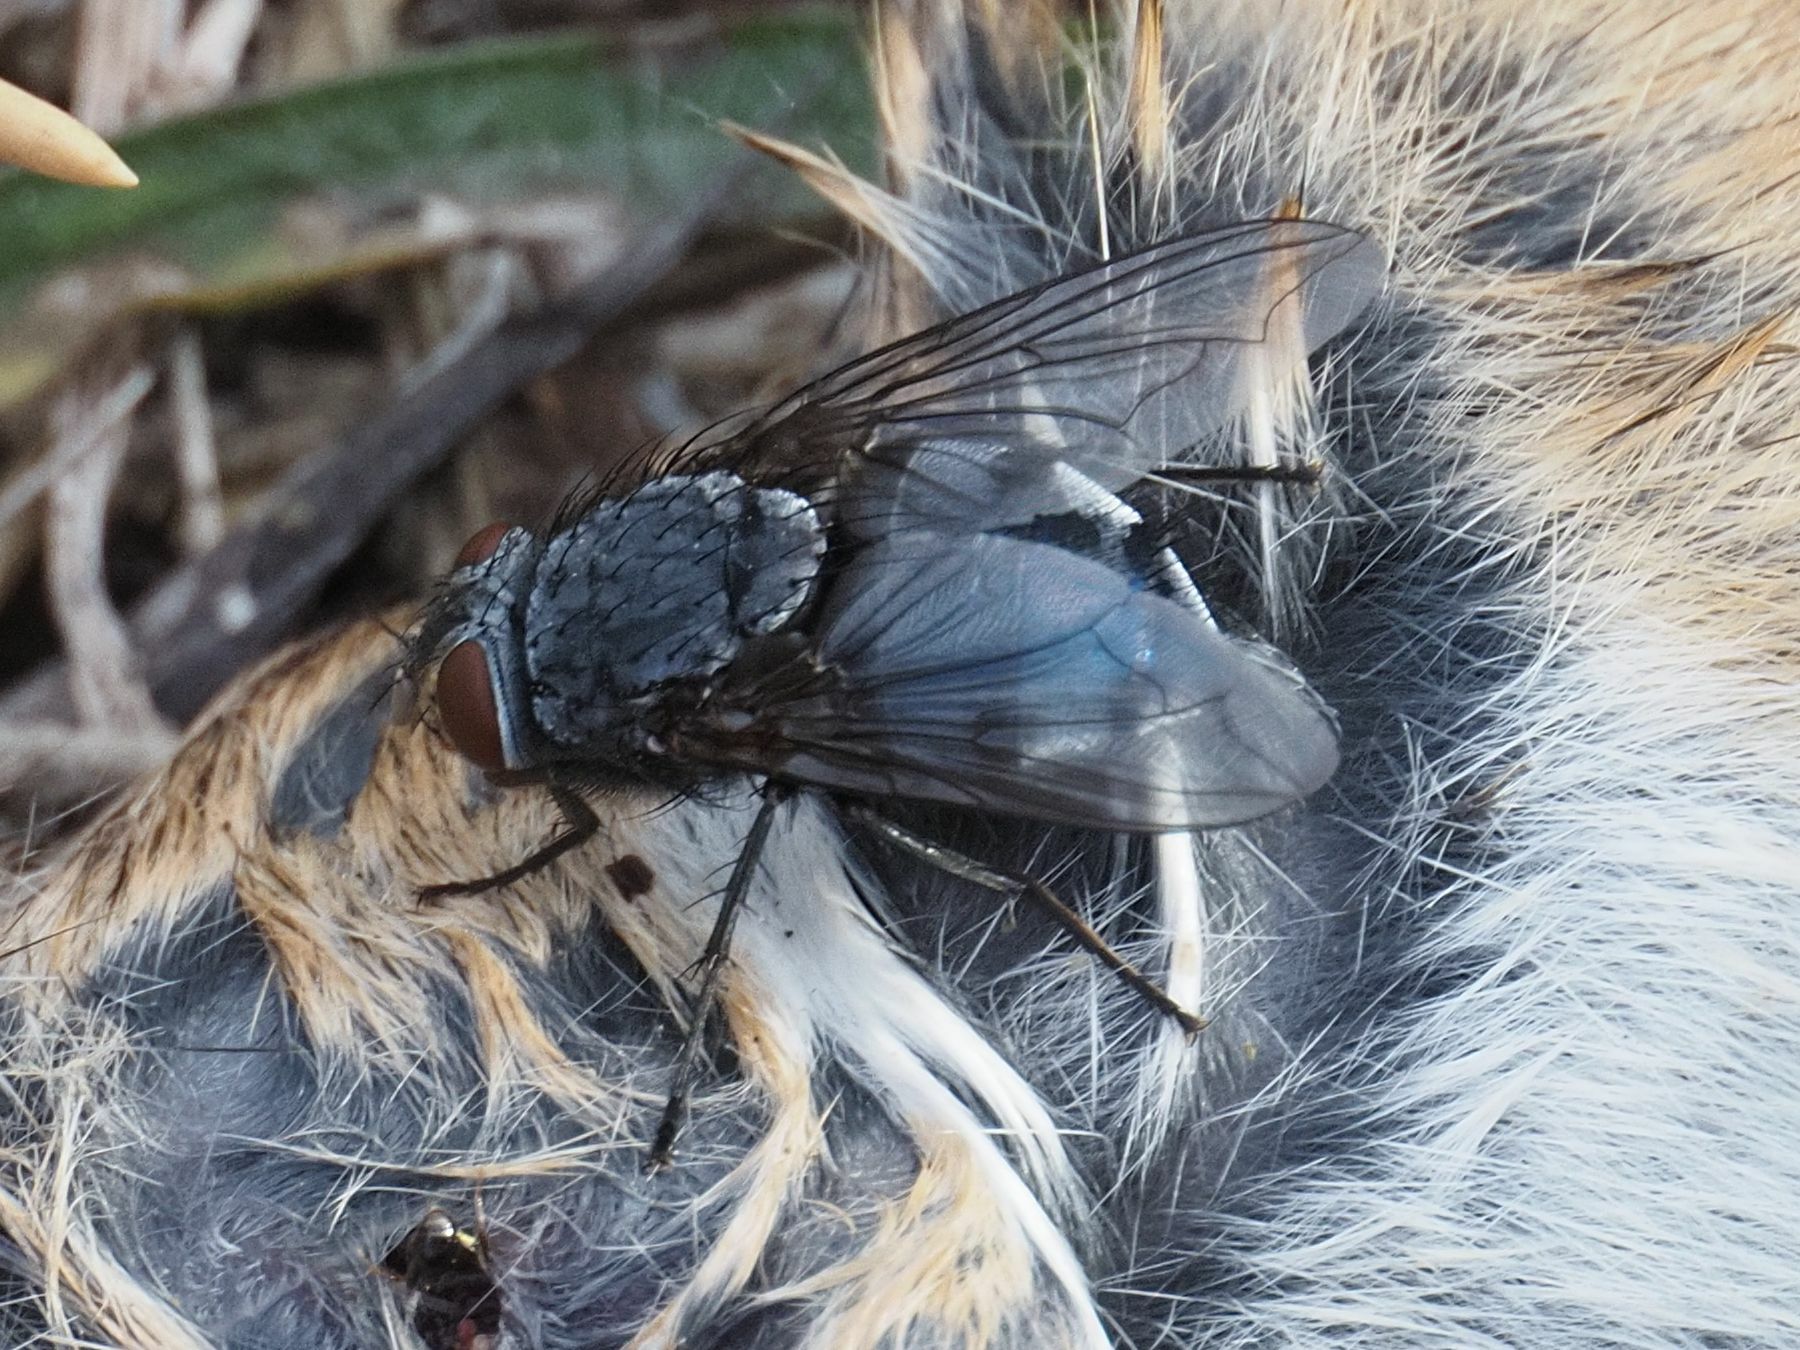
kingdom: Animalia
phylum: Arthropoda
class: Insecta
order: Diptera
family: Calliphoridae
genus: Calliphora
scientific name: Calliphora vicina
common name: Common blow flie
